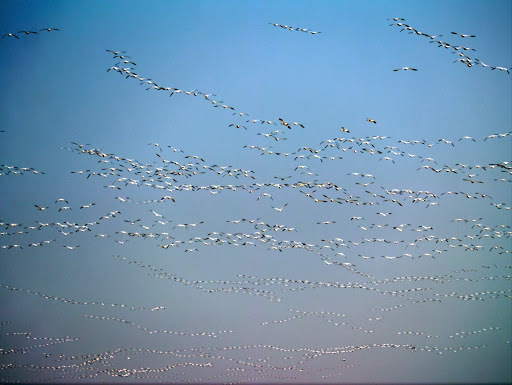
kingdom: Animalia
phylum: Chordata
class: Aves
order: Anseriformes
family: Anatidae
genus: Anser
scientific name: Anser caerulescens
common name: Snow goose
